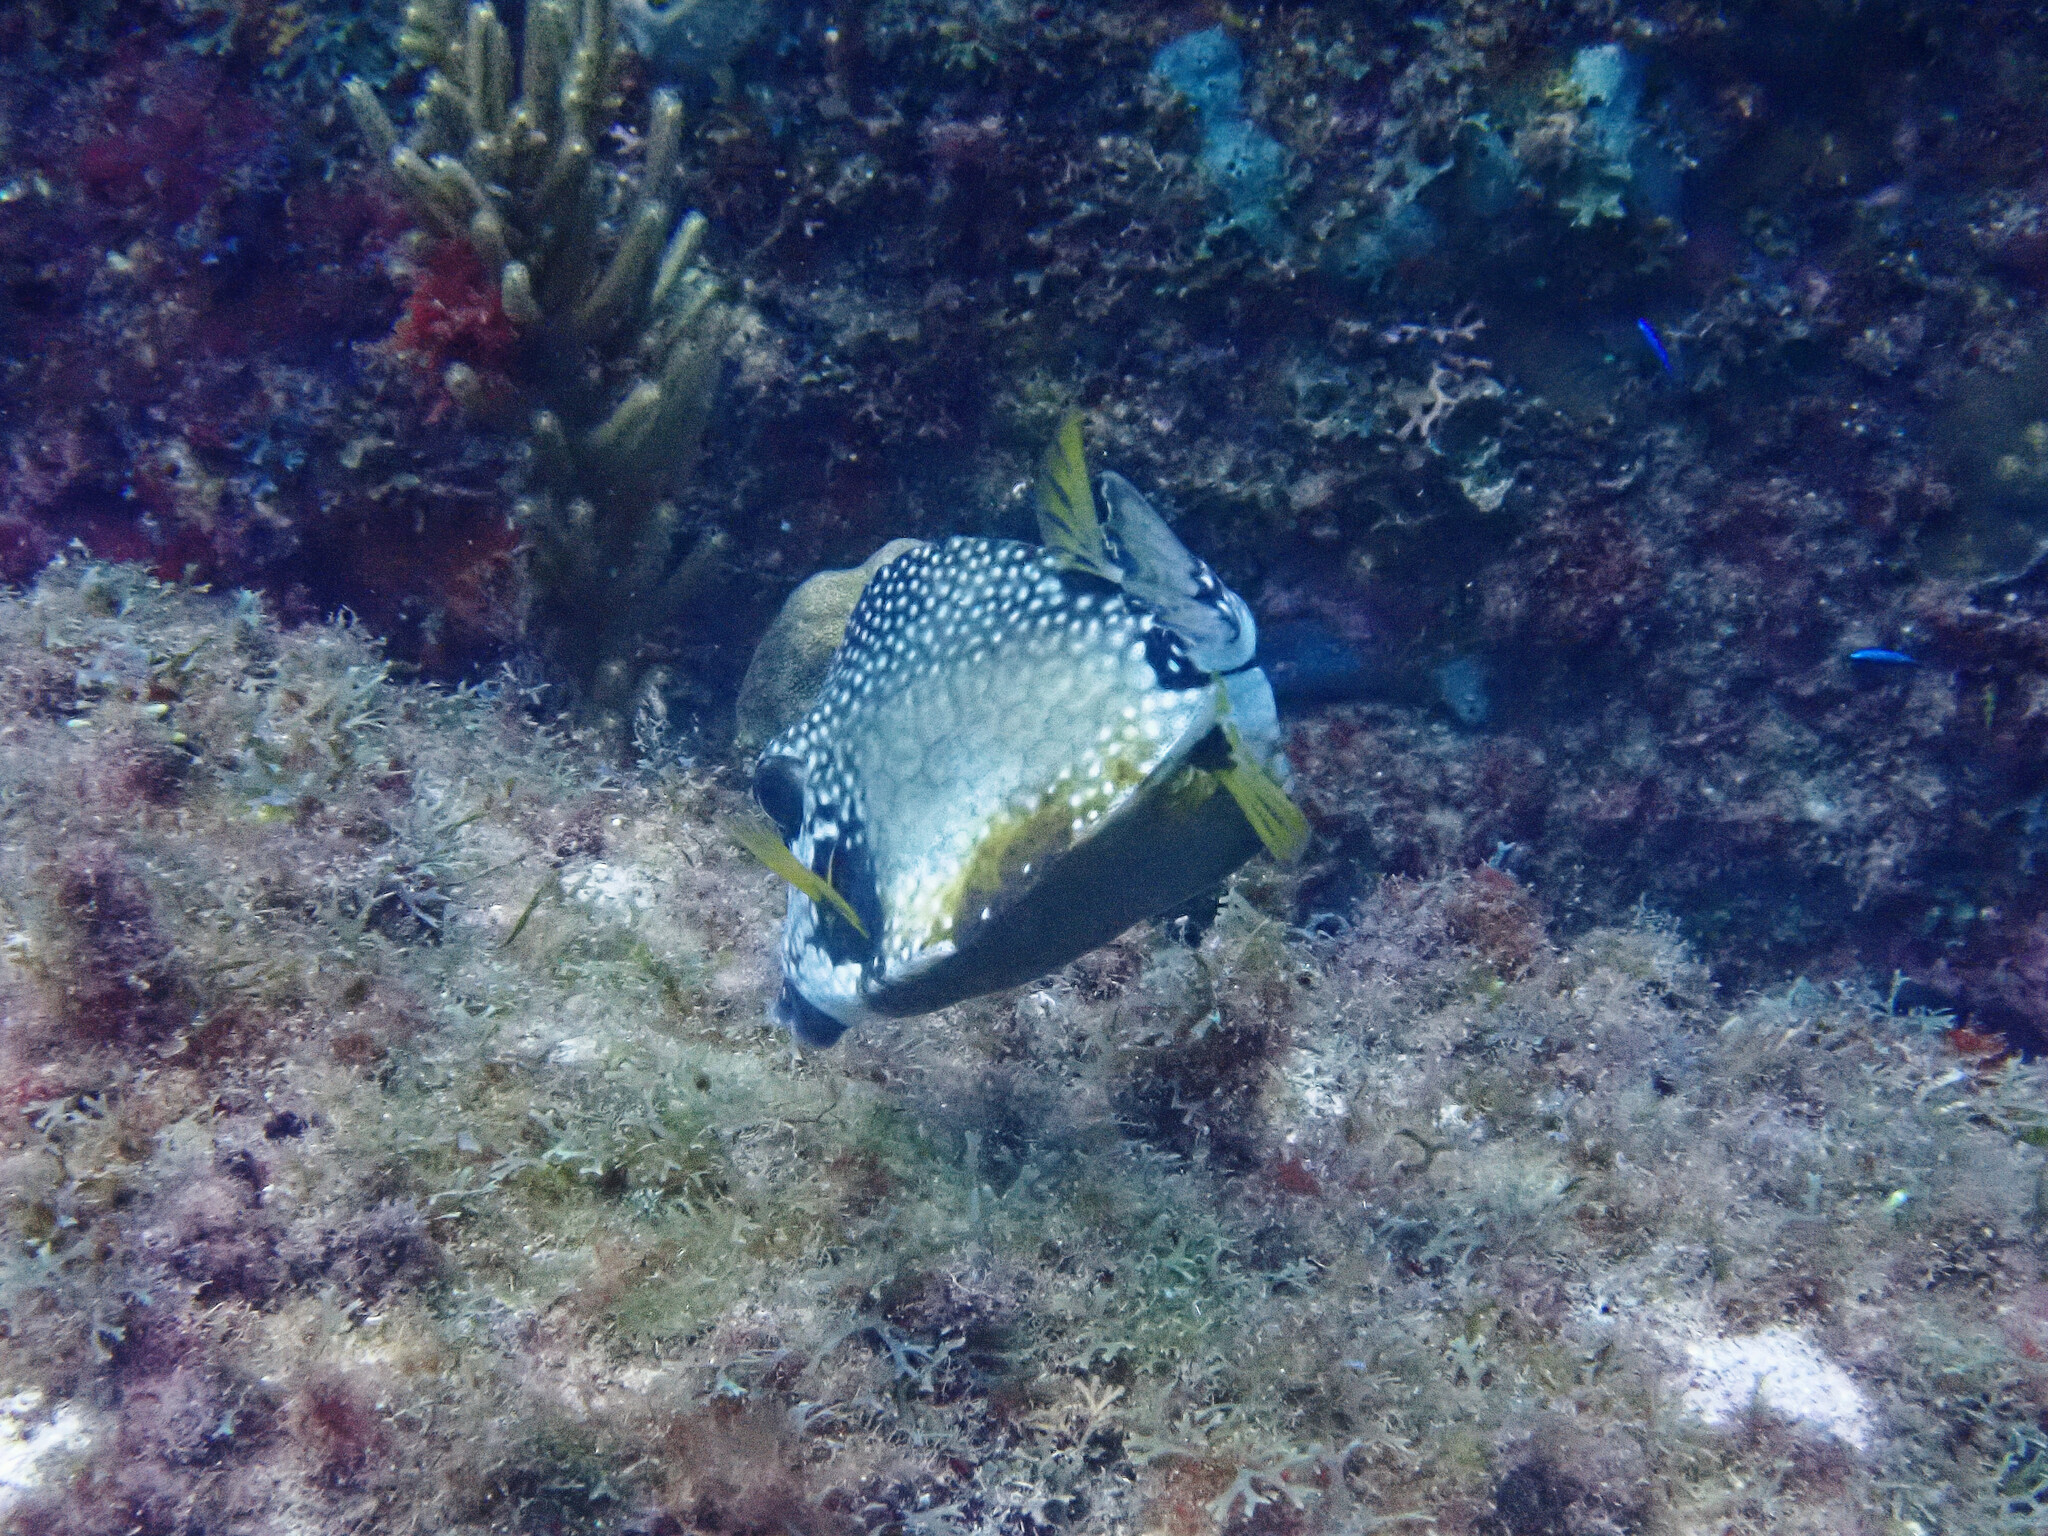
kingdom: Animalia
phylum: Chordata
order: Tetraodontiformes
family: Ostraciidae
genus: Lactophrys
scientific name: Lactophrys triqueter
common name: Smooth trunkfish
